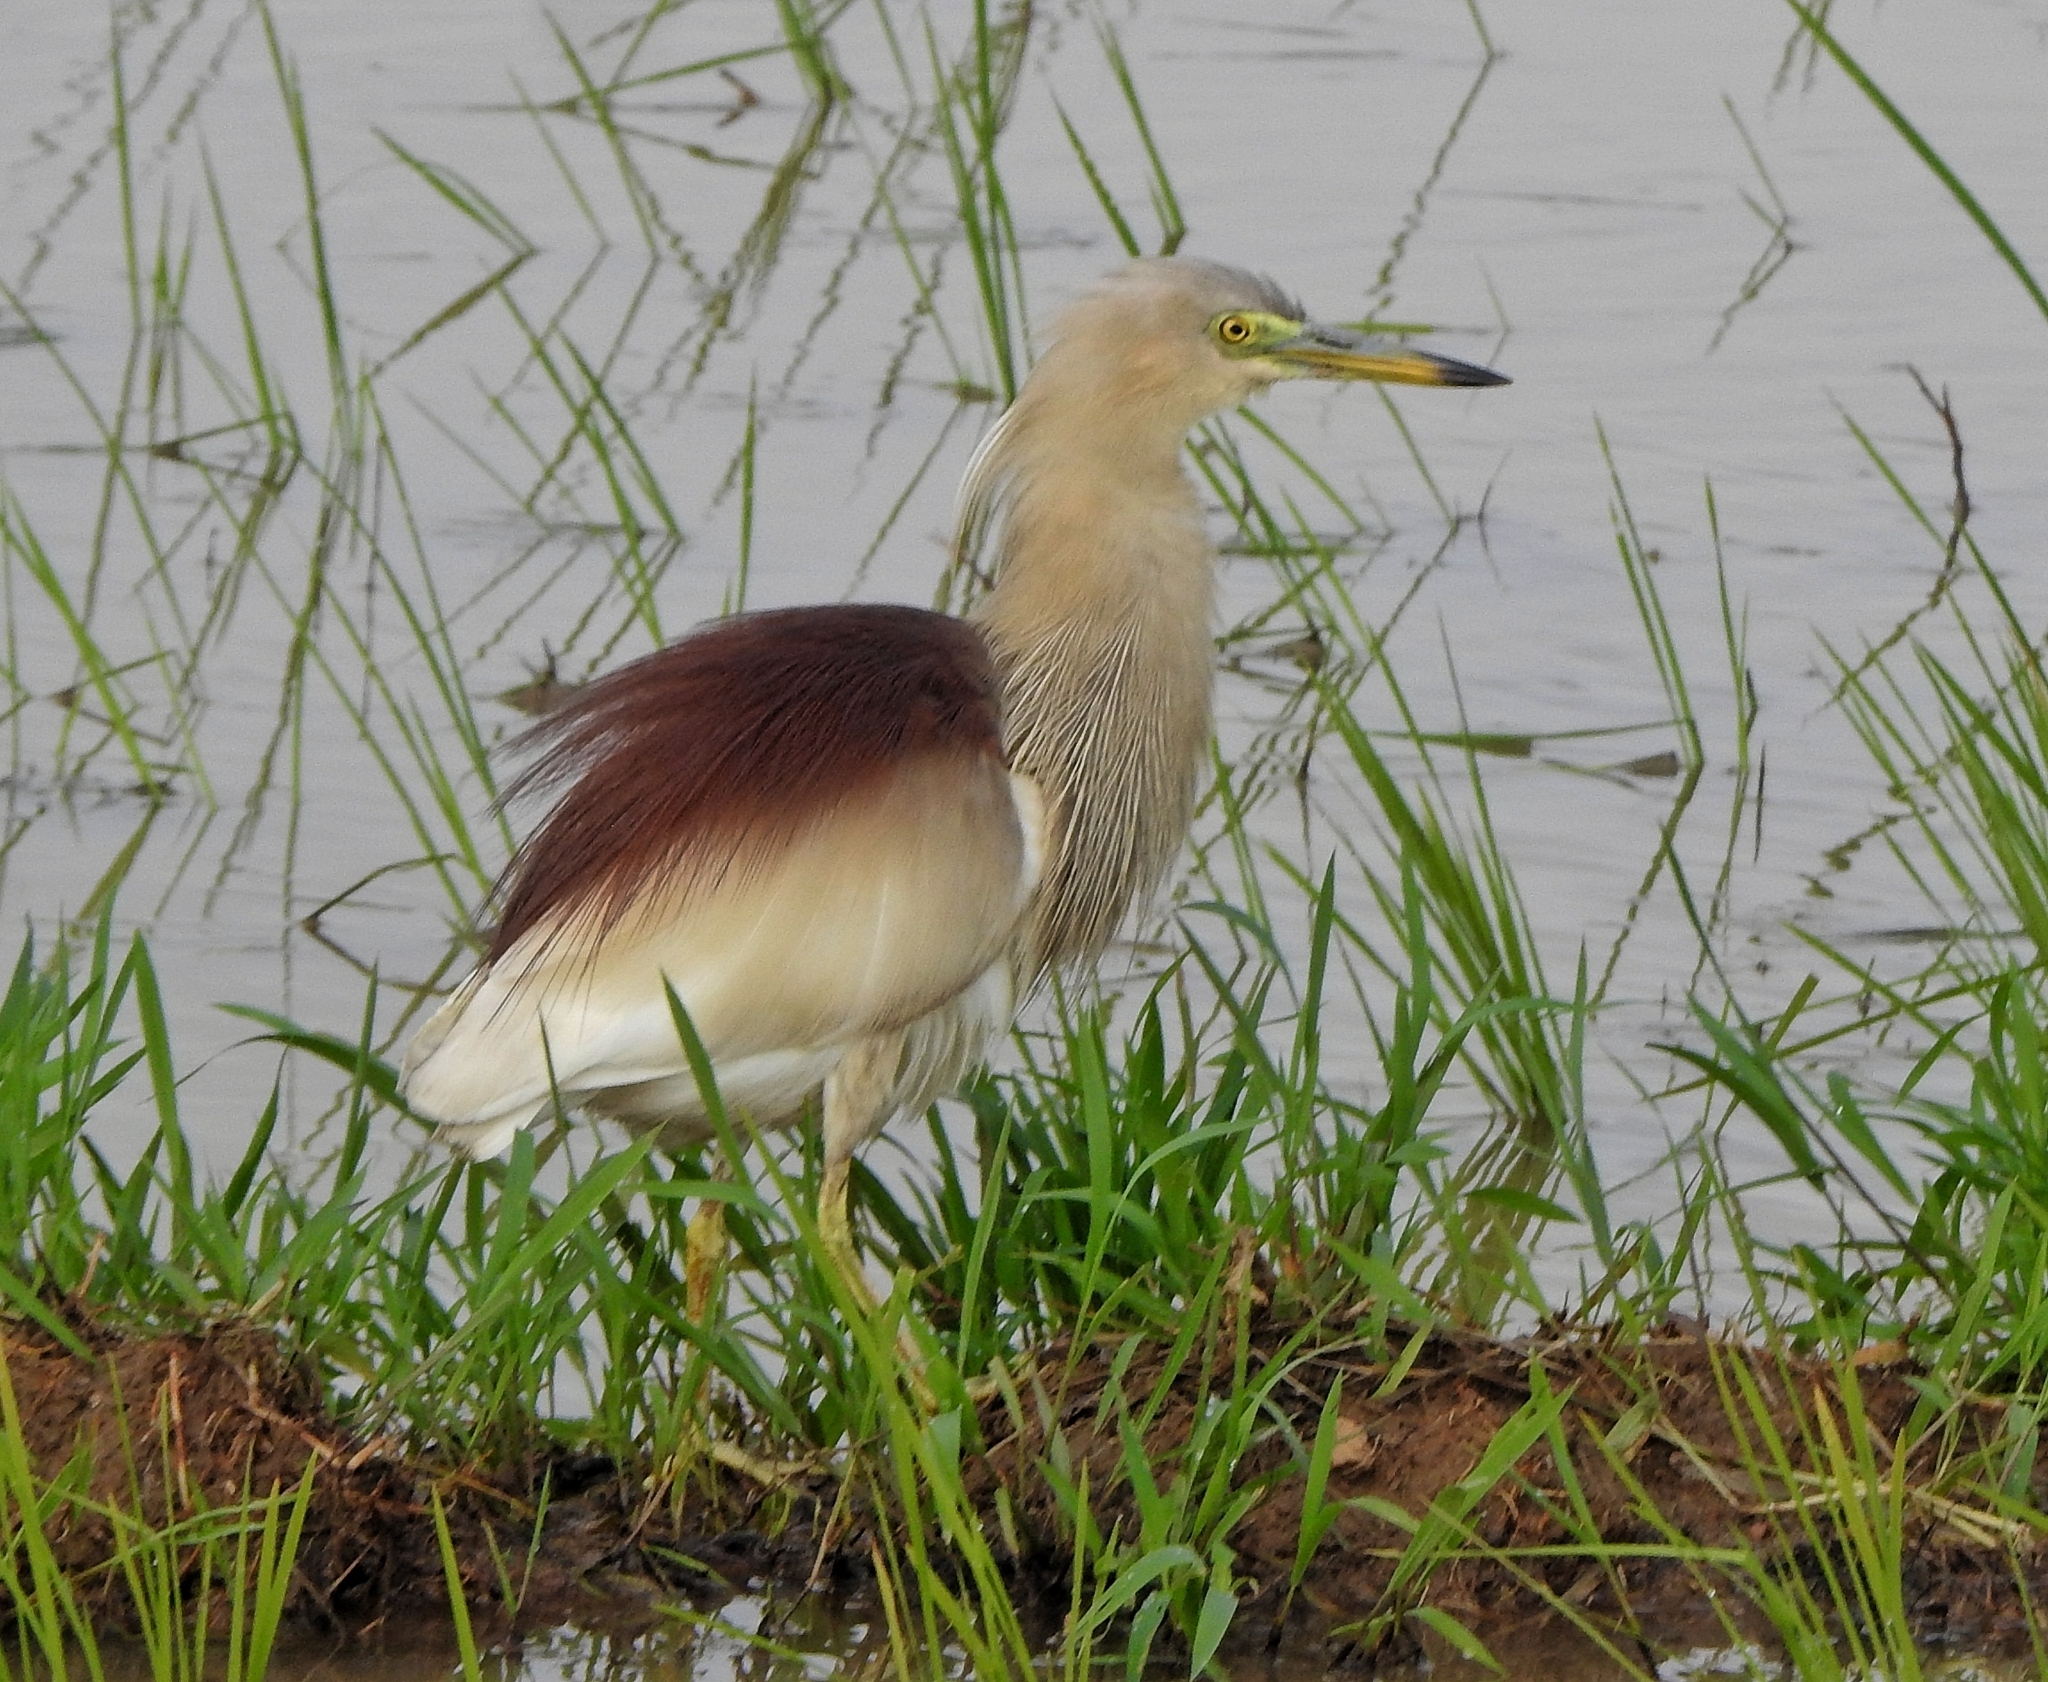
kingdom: Animalia
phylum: Chordata
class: Aves
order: Pelecaniformes
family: Ardeidae
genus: Ardeola
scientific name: Ardeola grayii
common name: Indian pond heron
